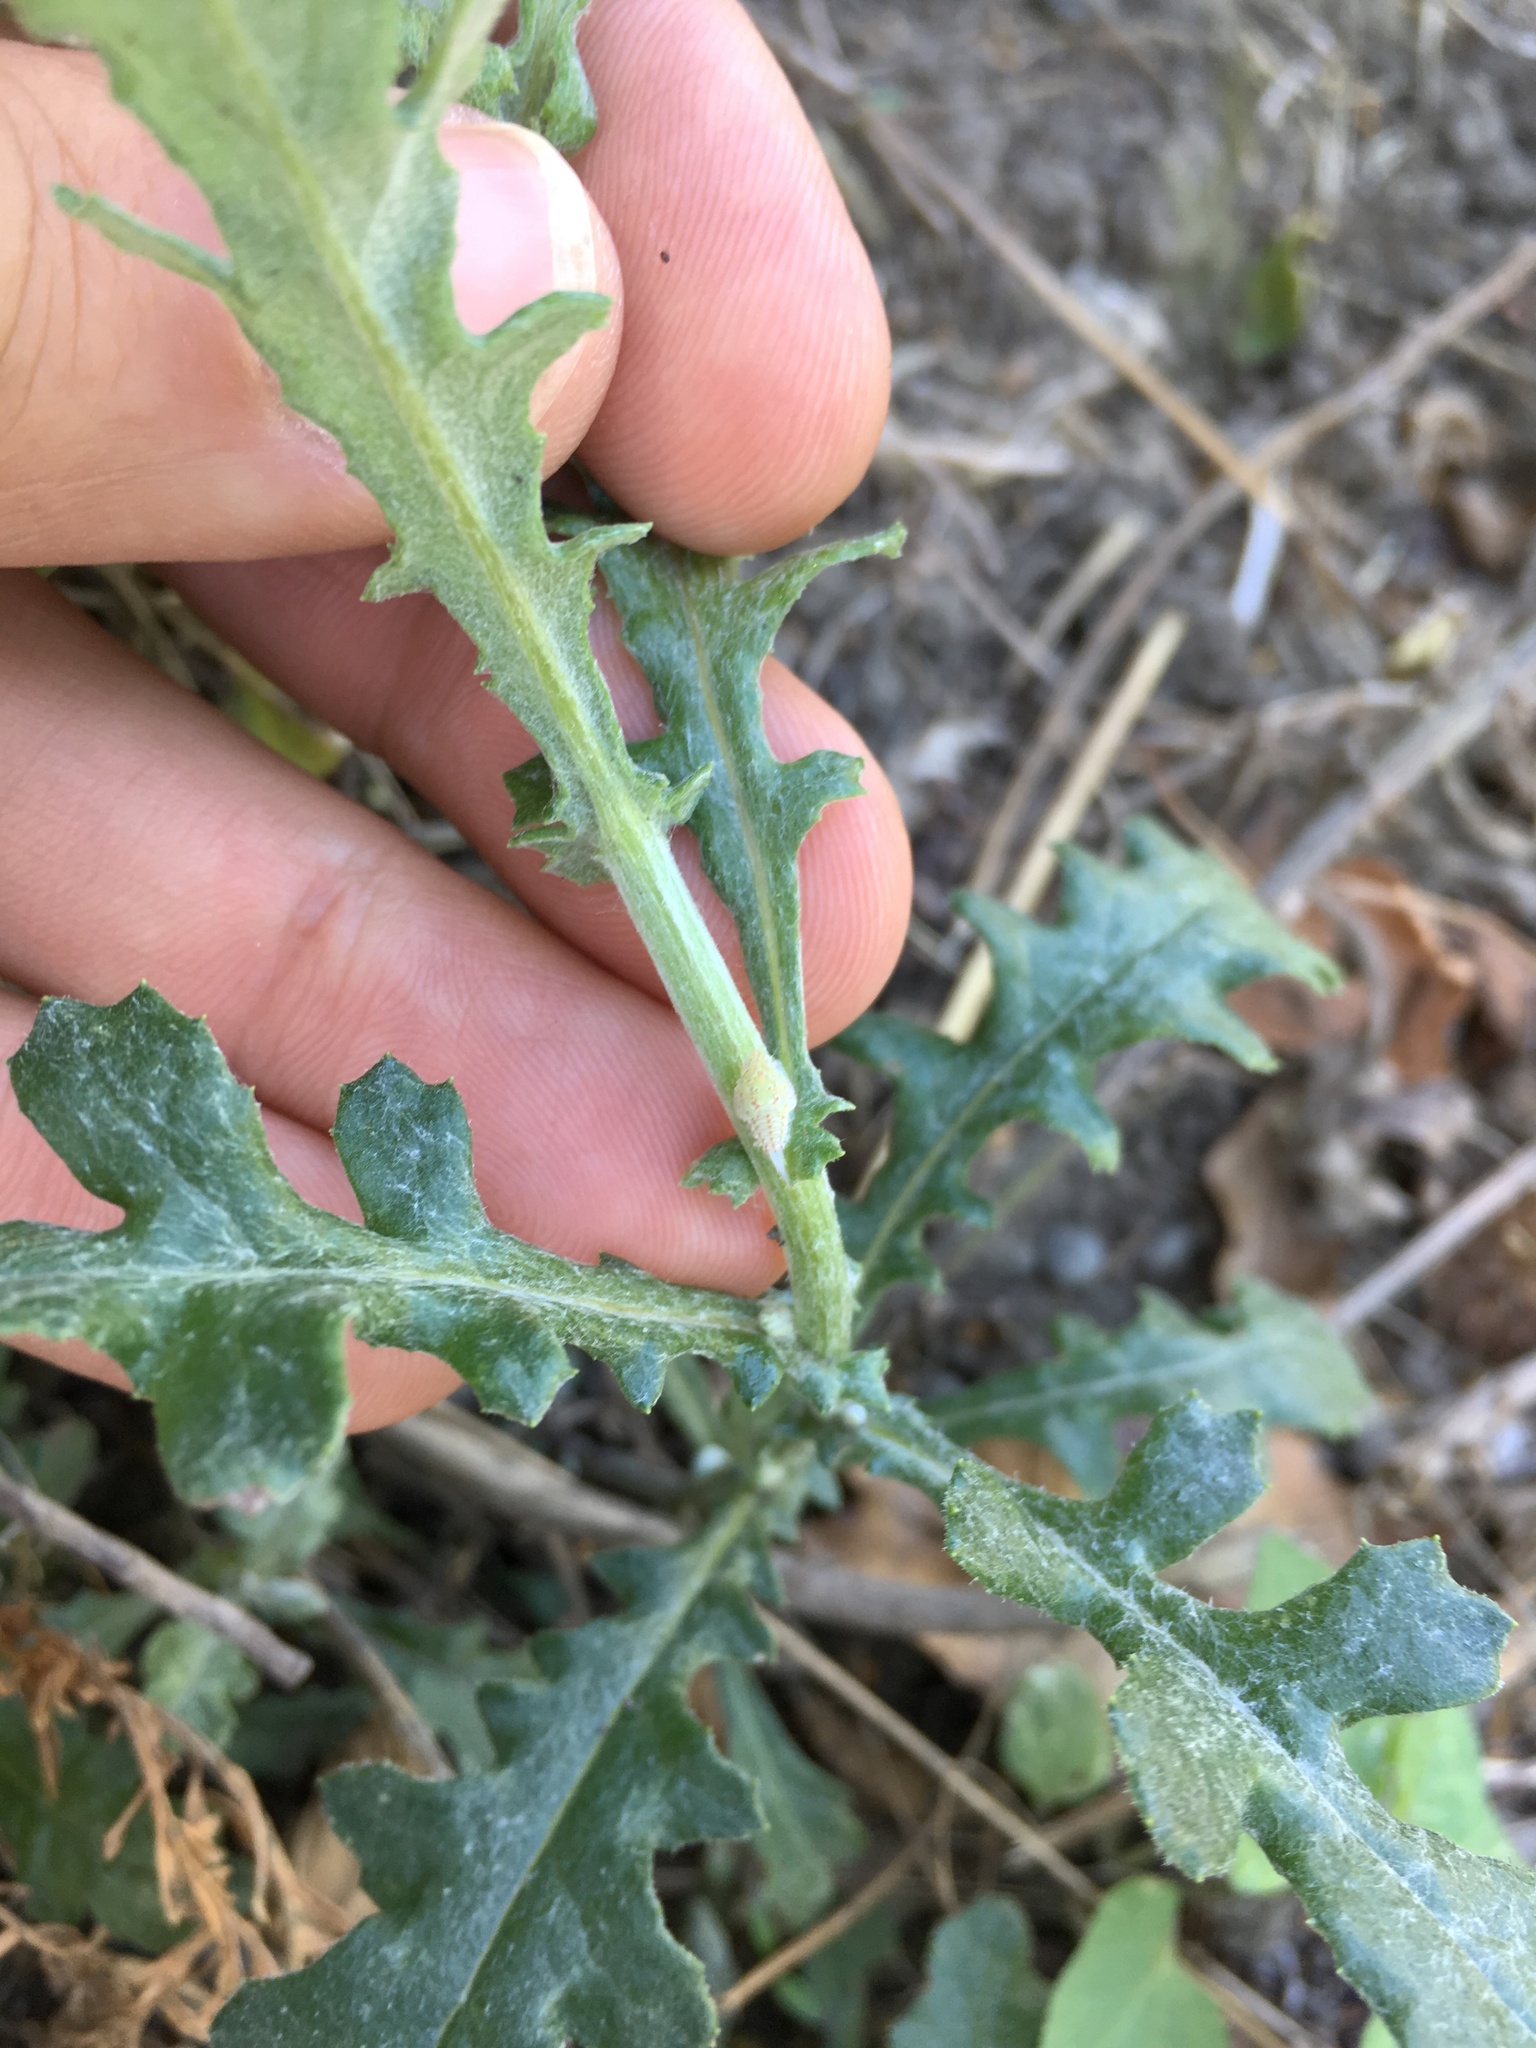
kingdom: Animalia
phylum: Arthropoda
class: Insecta
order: Hemiptera
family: Flatidae
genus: Siphanta
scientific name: Siphanta acuta
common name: Torpedo bug
